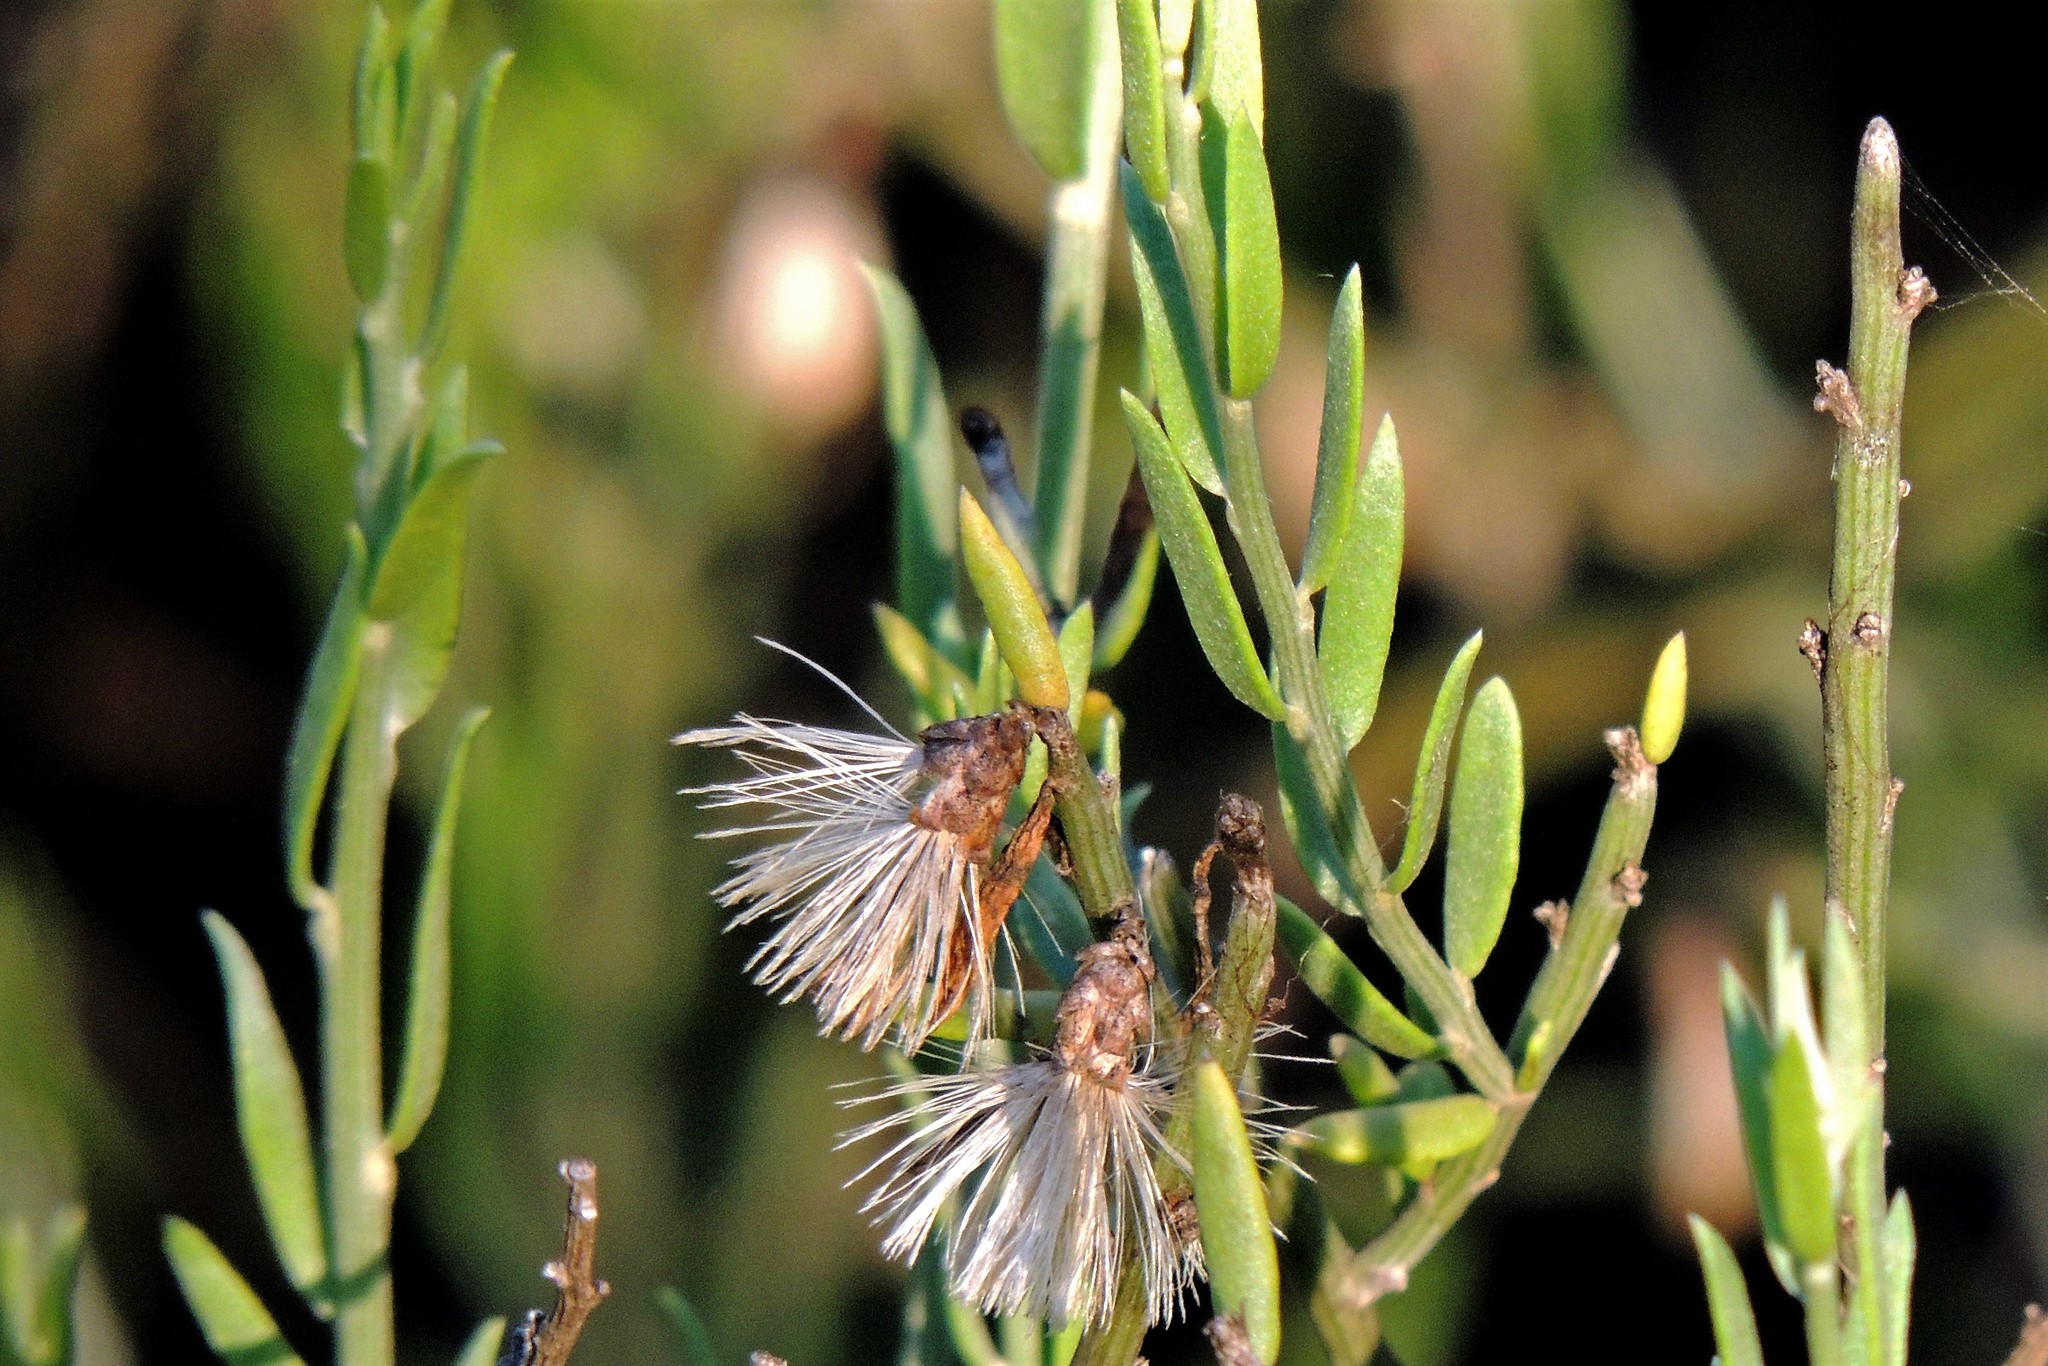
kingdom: Plantae
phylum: Tracheophyta
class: Magnoliopsida
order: Asterales
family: Asteraceae
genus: Cyclolepis
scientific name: Cyclolepis genistoides
